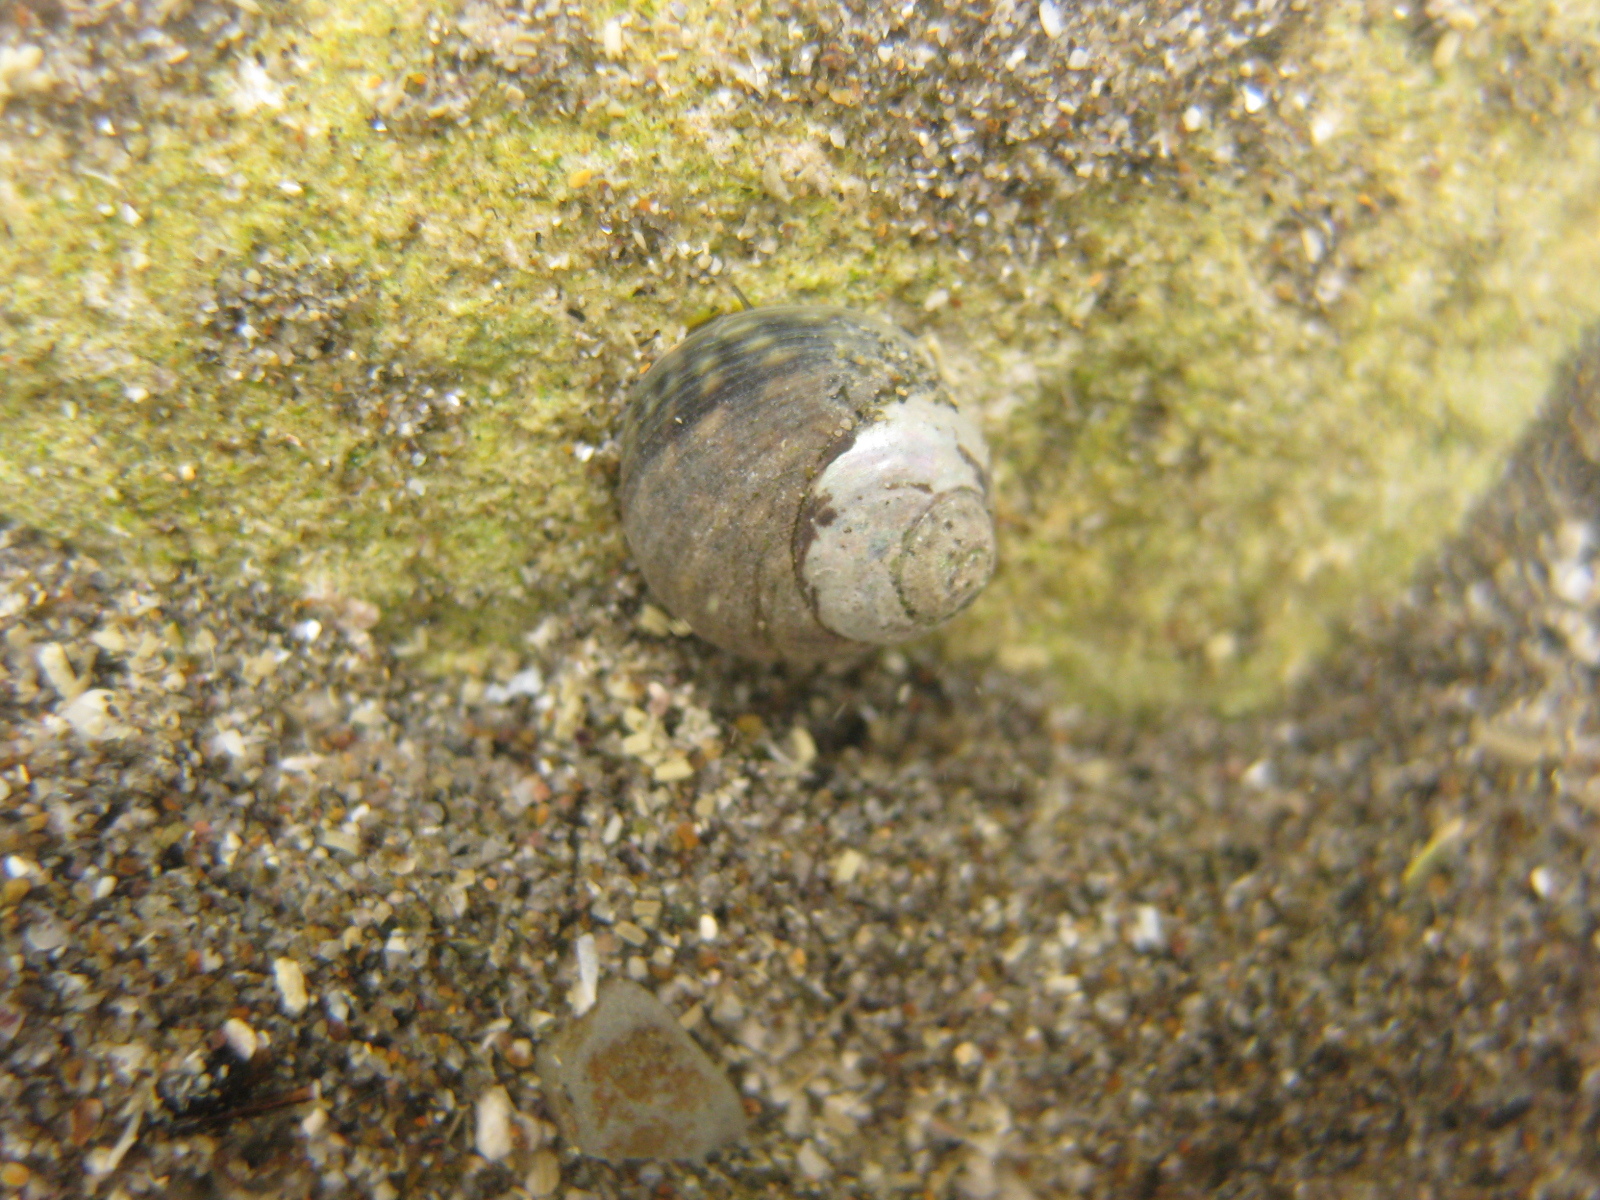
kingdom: Animalia
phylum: Mollusca
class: Gastropoda
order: Trochida
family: Trochidae
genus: Diloma
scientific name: Diloma coracinum
